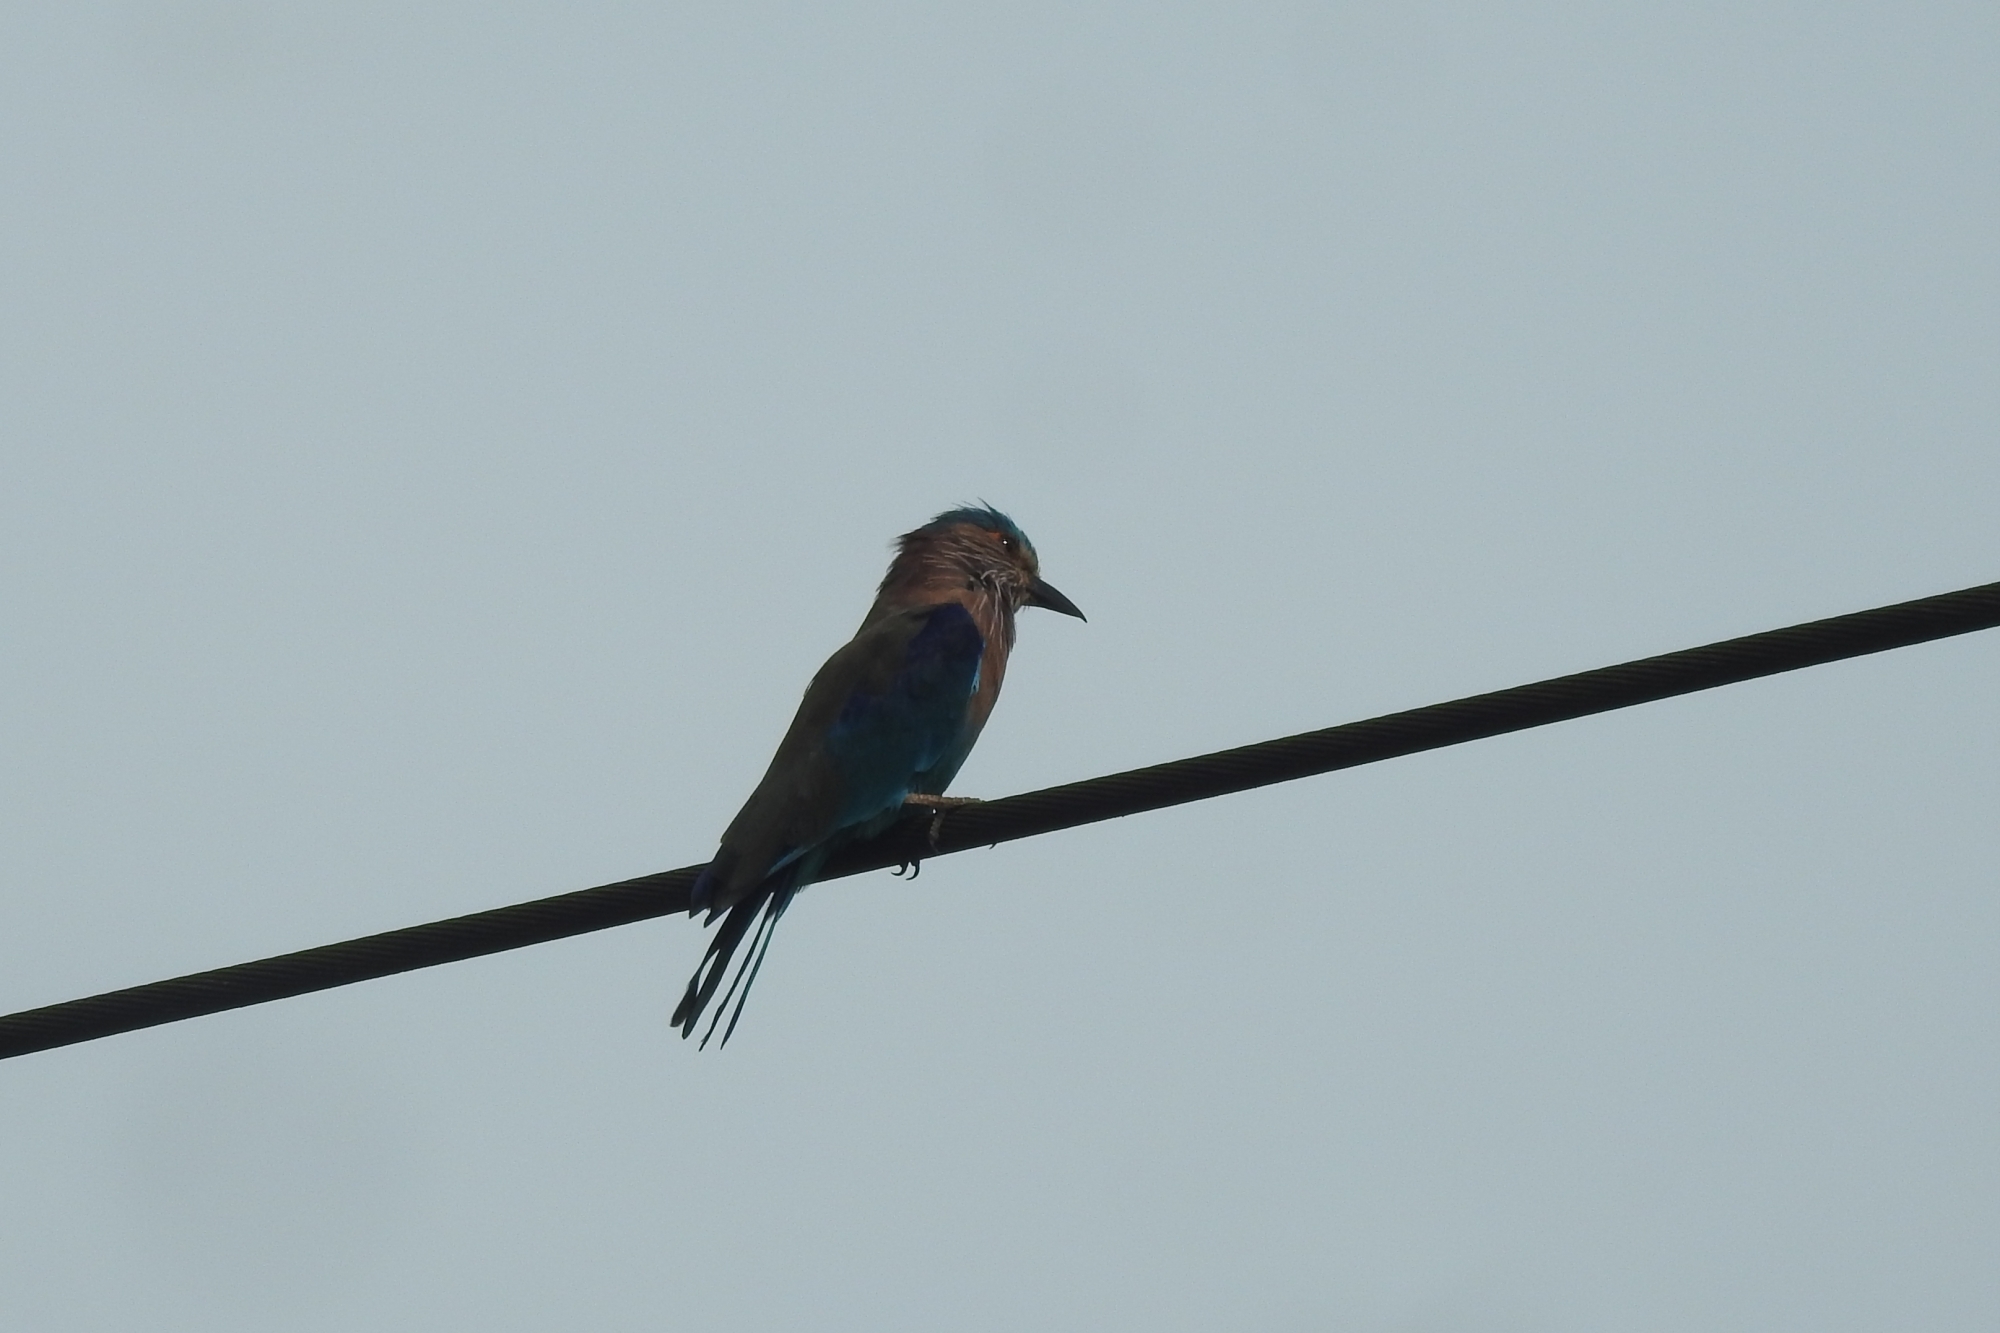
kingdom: Animalia
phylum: Chordata
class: Aves
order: Coraciiformes
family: Coraciidae
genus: Coracias
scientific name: Coracias benghalensis
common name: Indian roller
